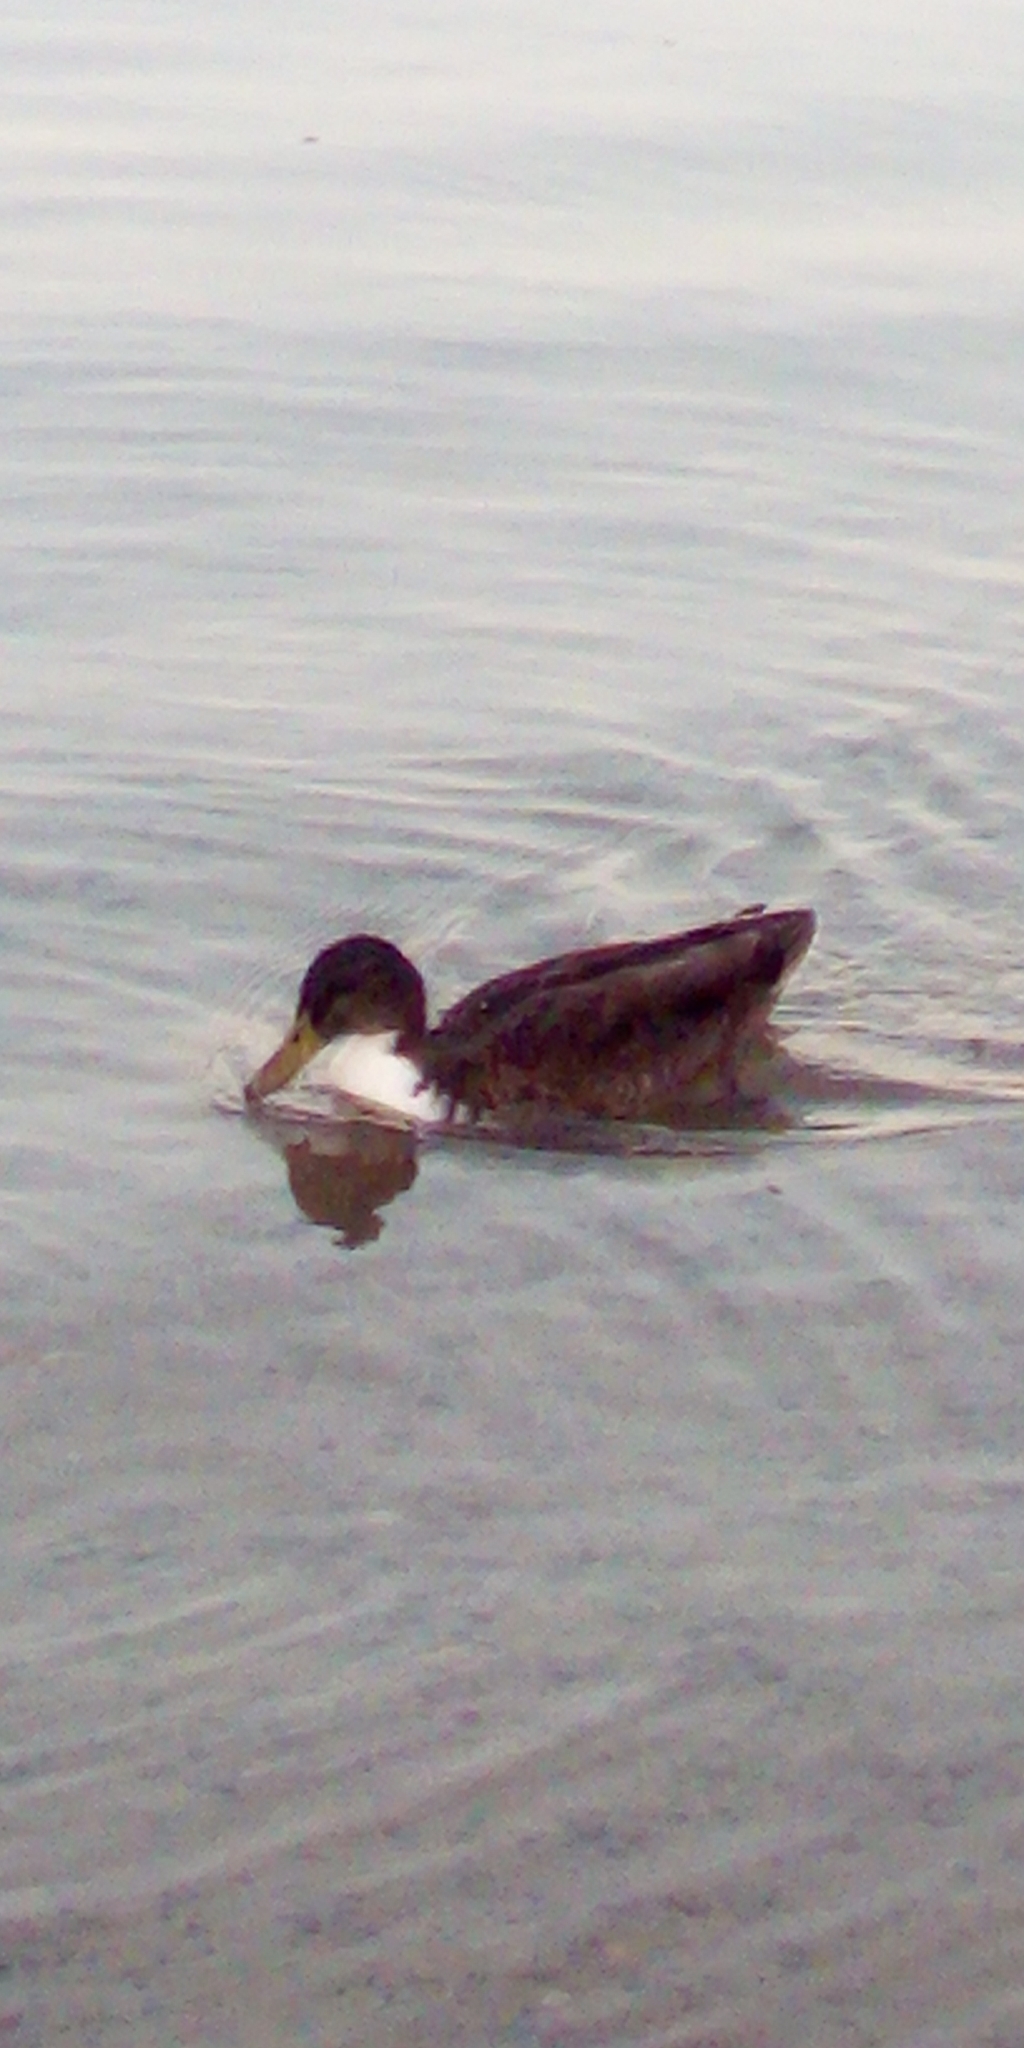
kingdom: Animalia
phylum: Chordata
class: Aves
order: Anseriformes
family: Anatidae
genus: Anas
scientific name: Anas platyrhynchos
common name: Mallard
